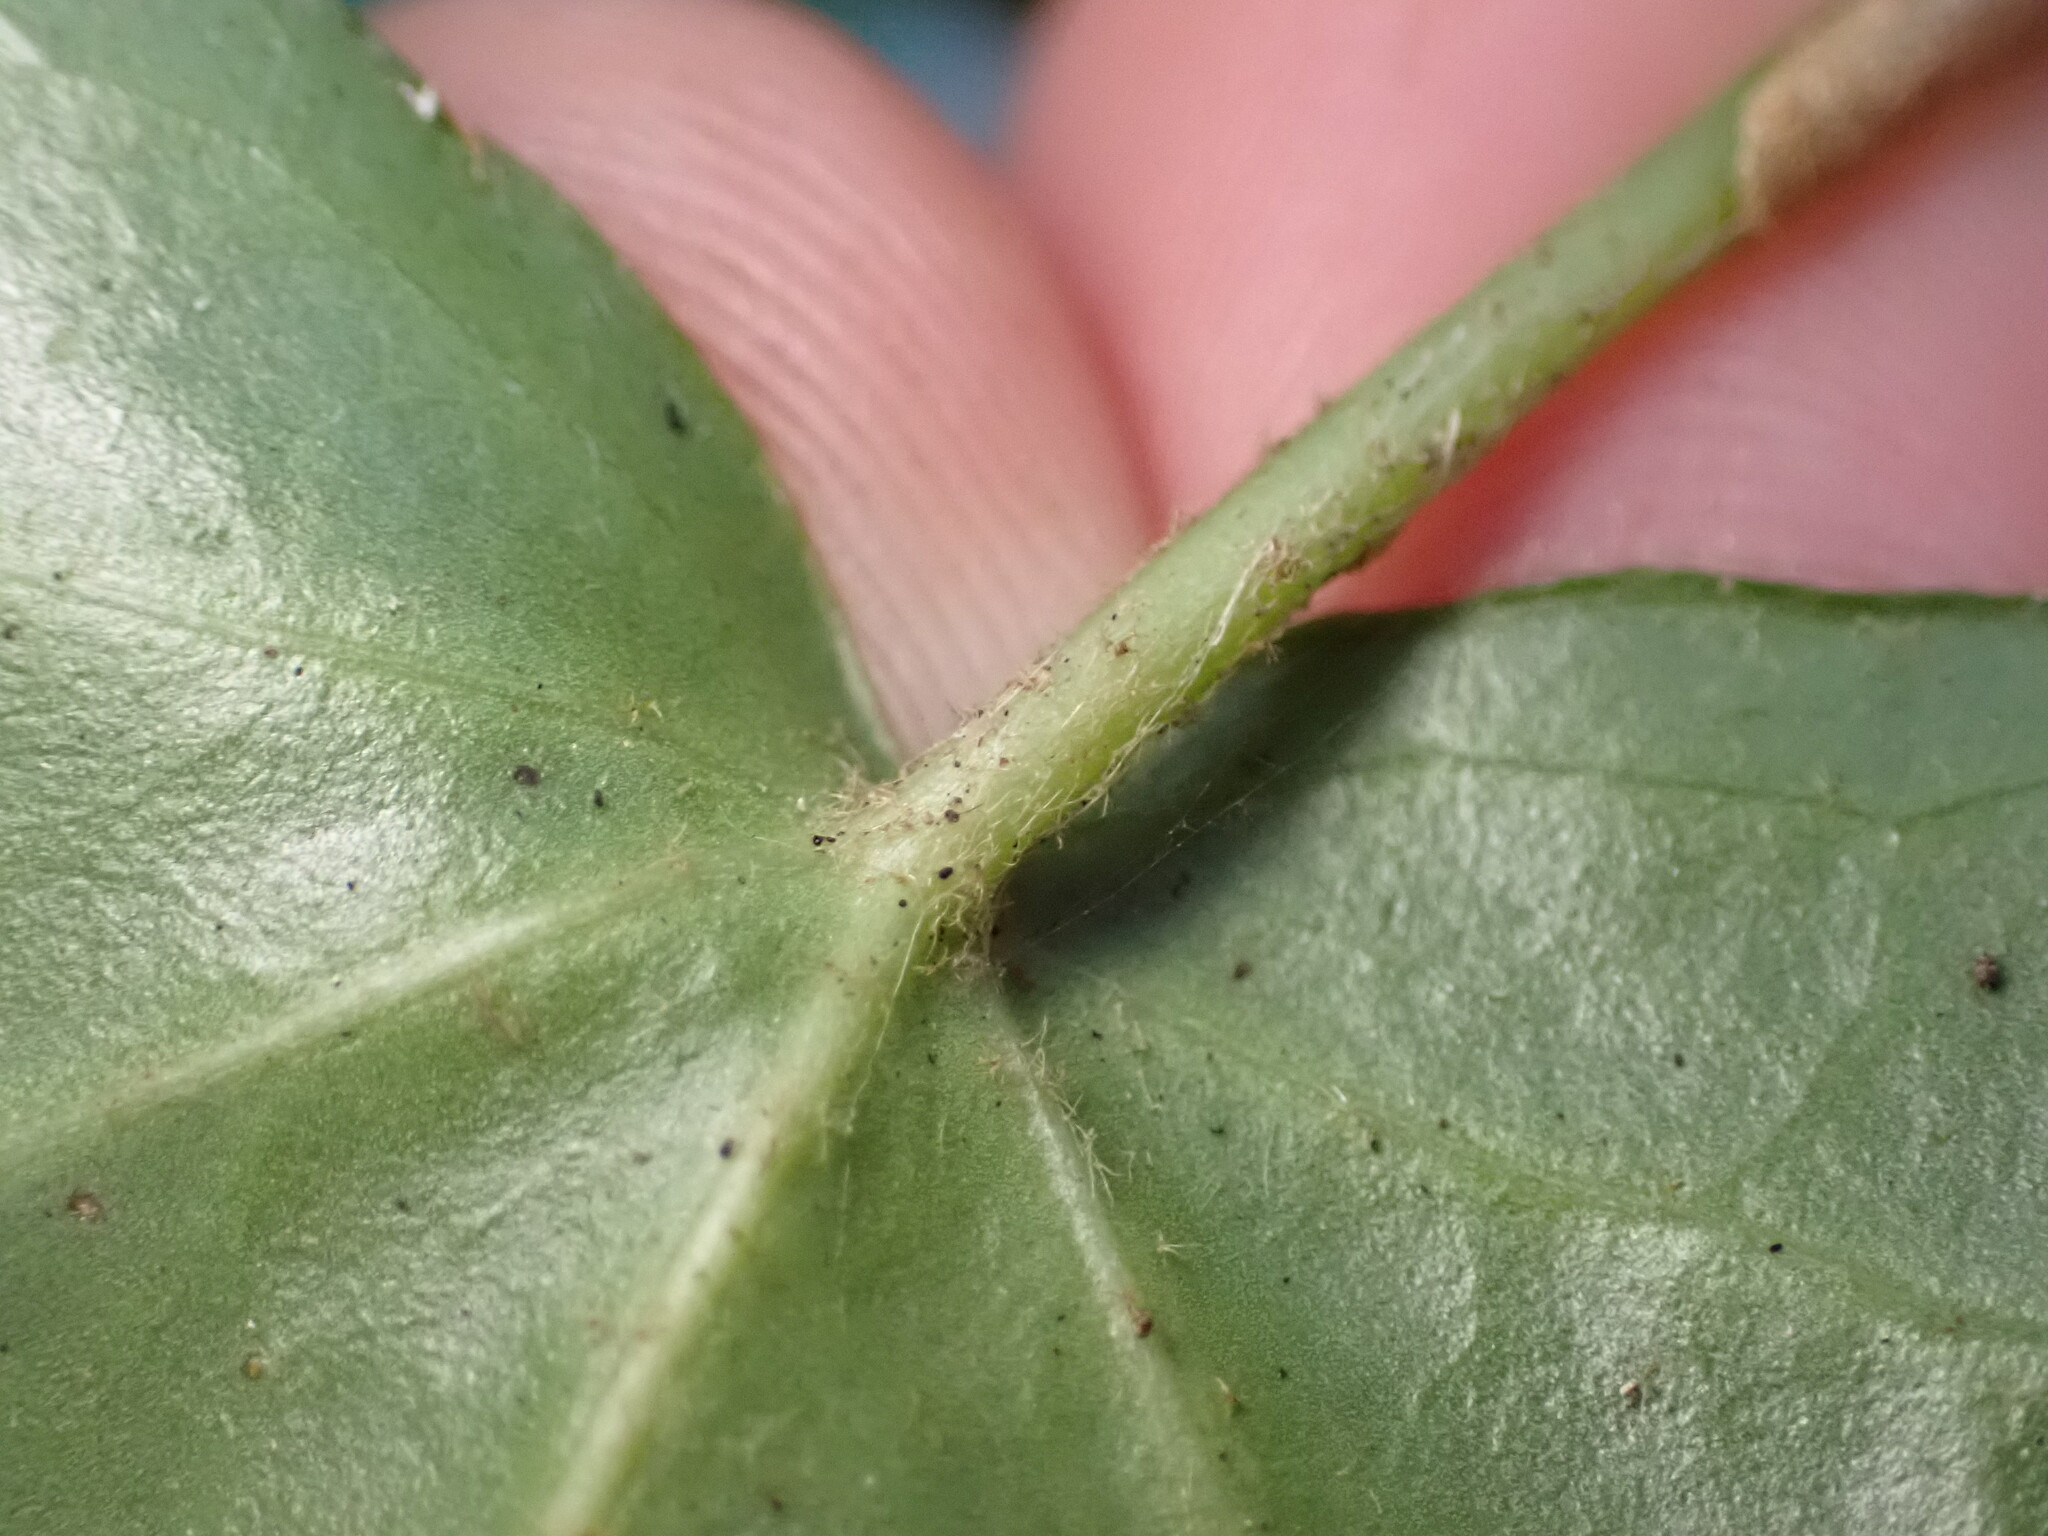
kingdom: Plantae
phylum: Tracheophyta
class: Magnoliopsida
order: Apiales
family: Araliaceae
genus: Hedera
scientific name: Hedera helix
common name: Ivy
